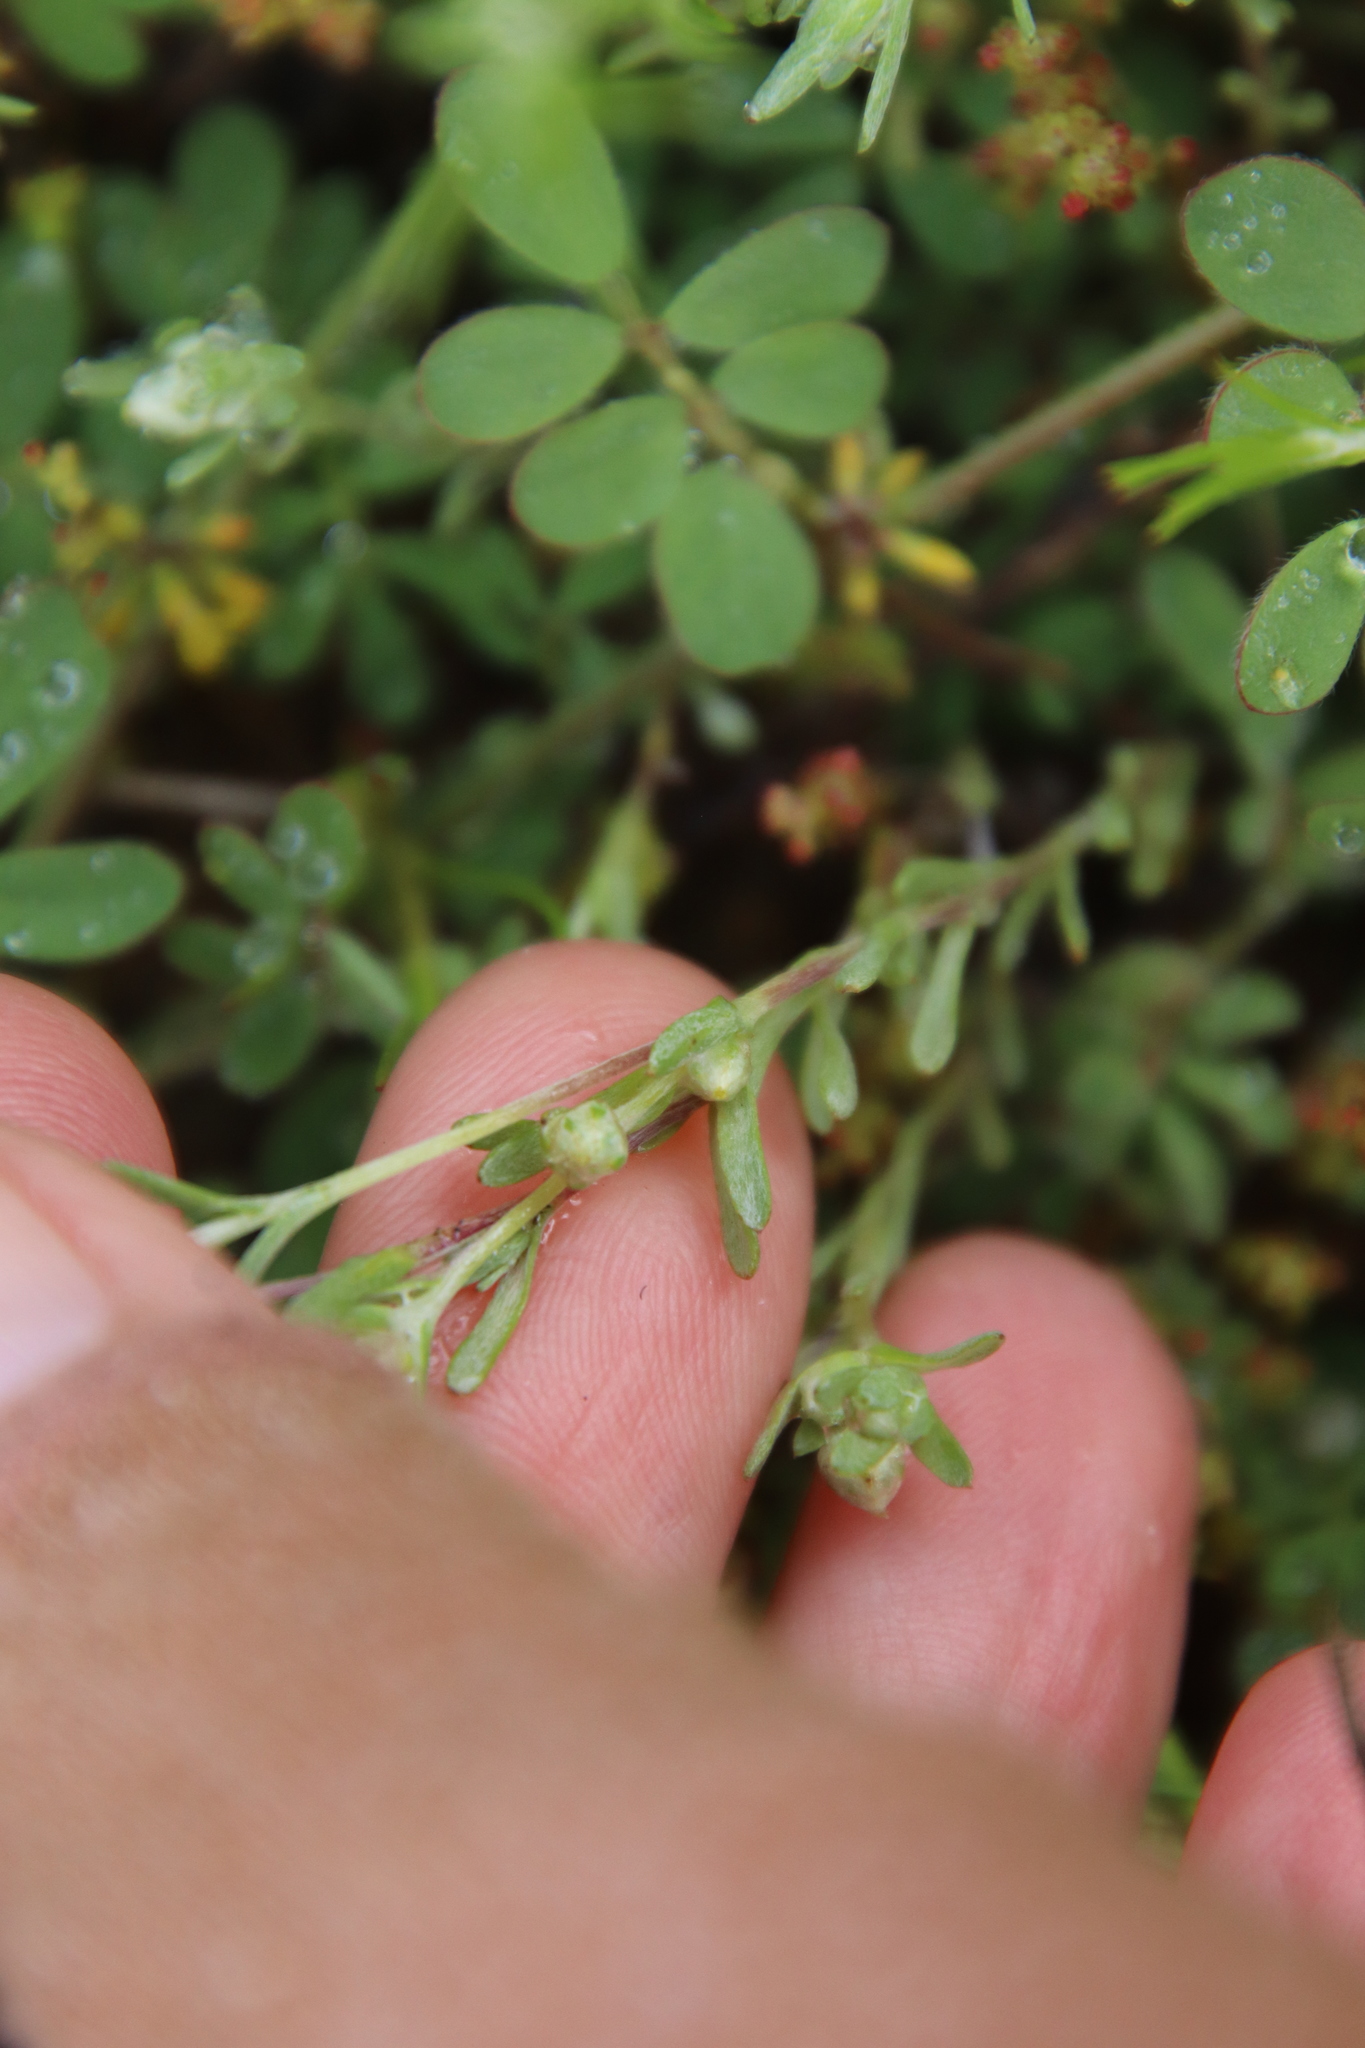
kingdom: Plantae
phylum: Tracheophyta
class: Magnoliopsida
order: Asterales
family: Asteraceae
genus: Logfia
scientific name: Logfia californica
